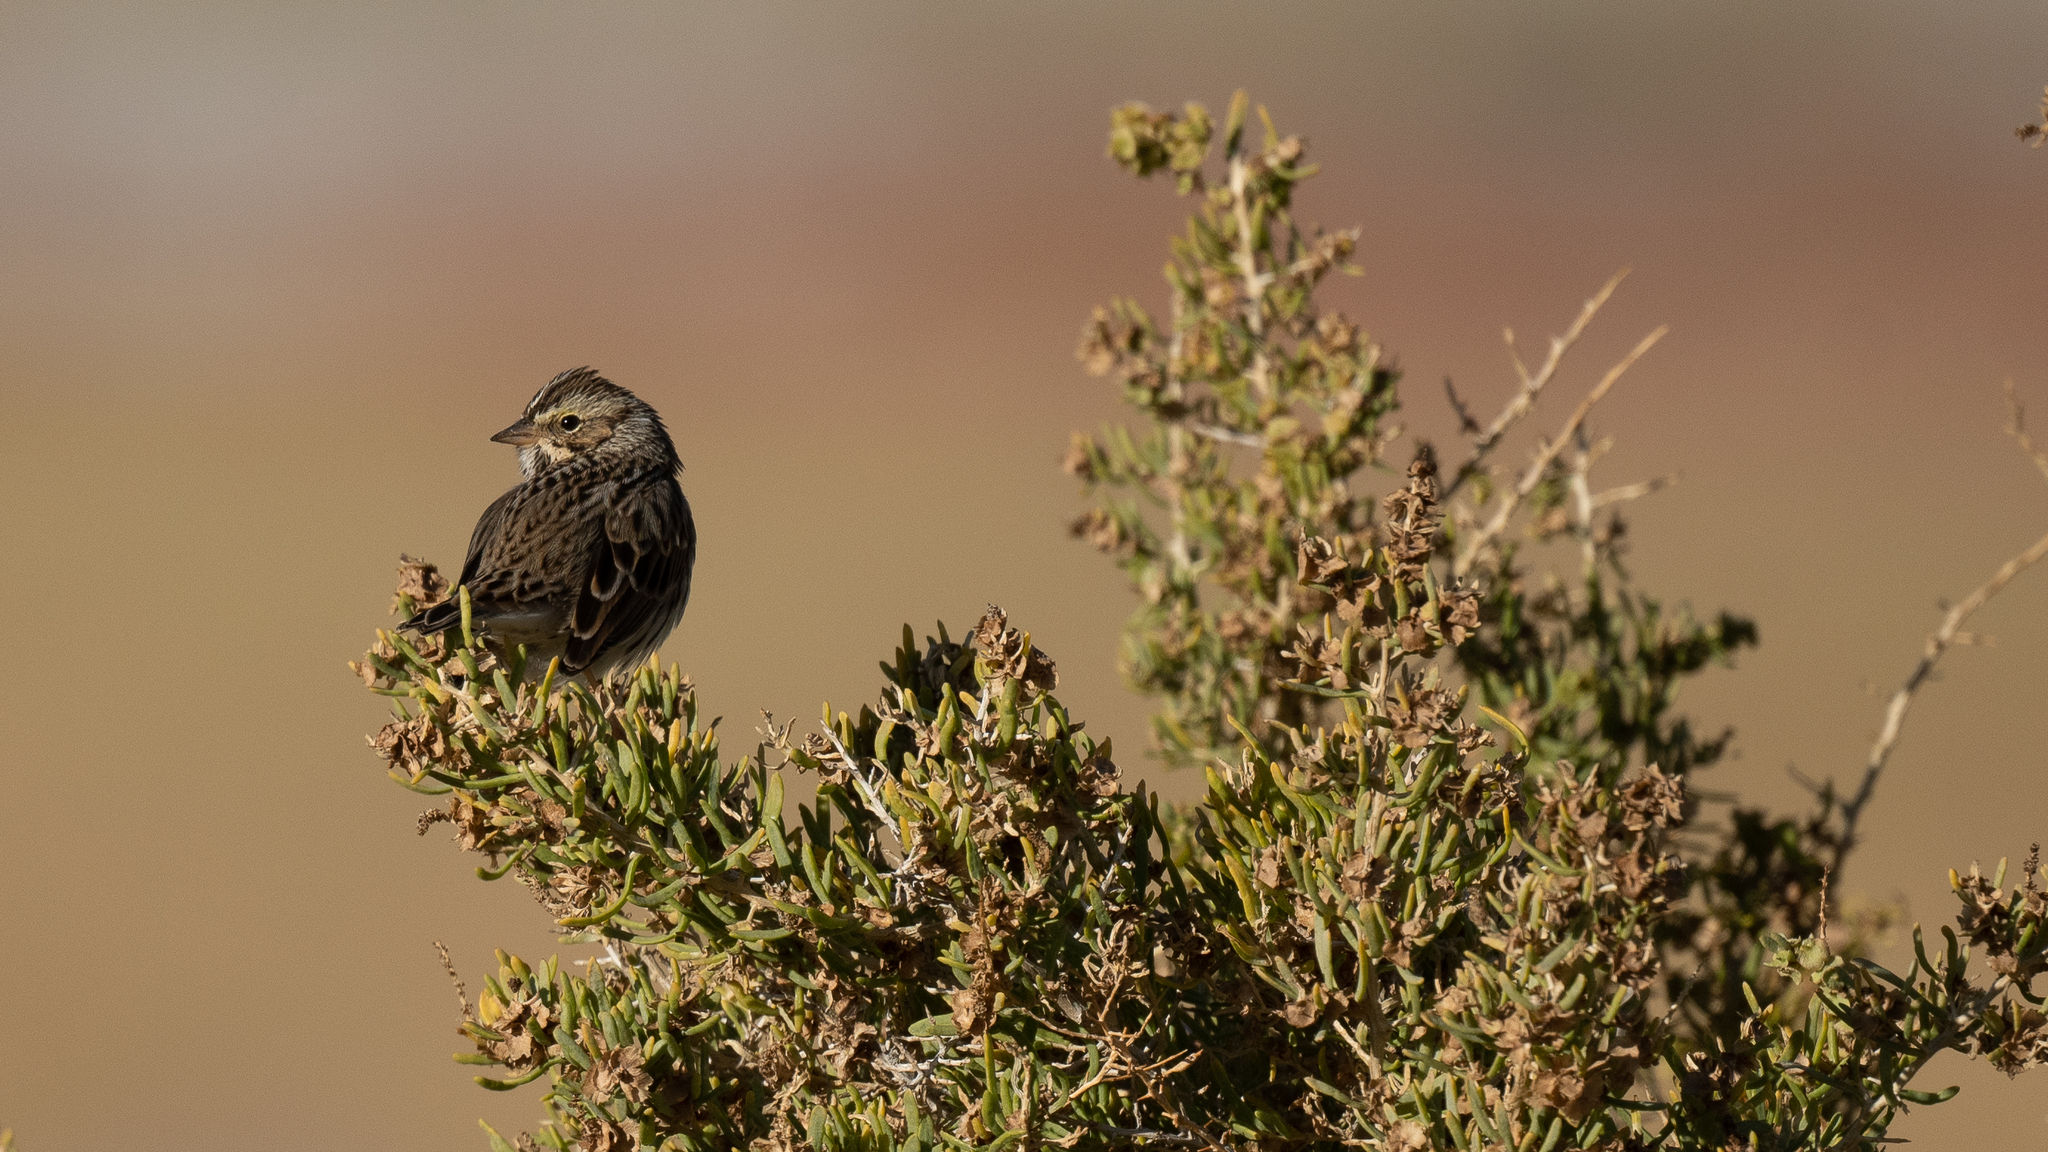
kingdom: Animalia
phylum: Chordata
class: Aves
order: Passeriformes
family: Passerellidae
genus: Passerculus
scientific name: Passerculus sandwichensis
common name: Savannah sparrow
